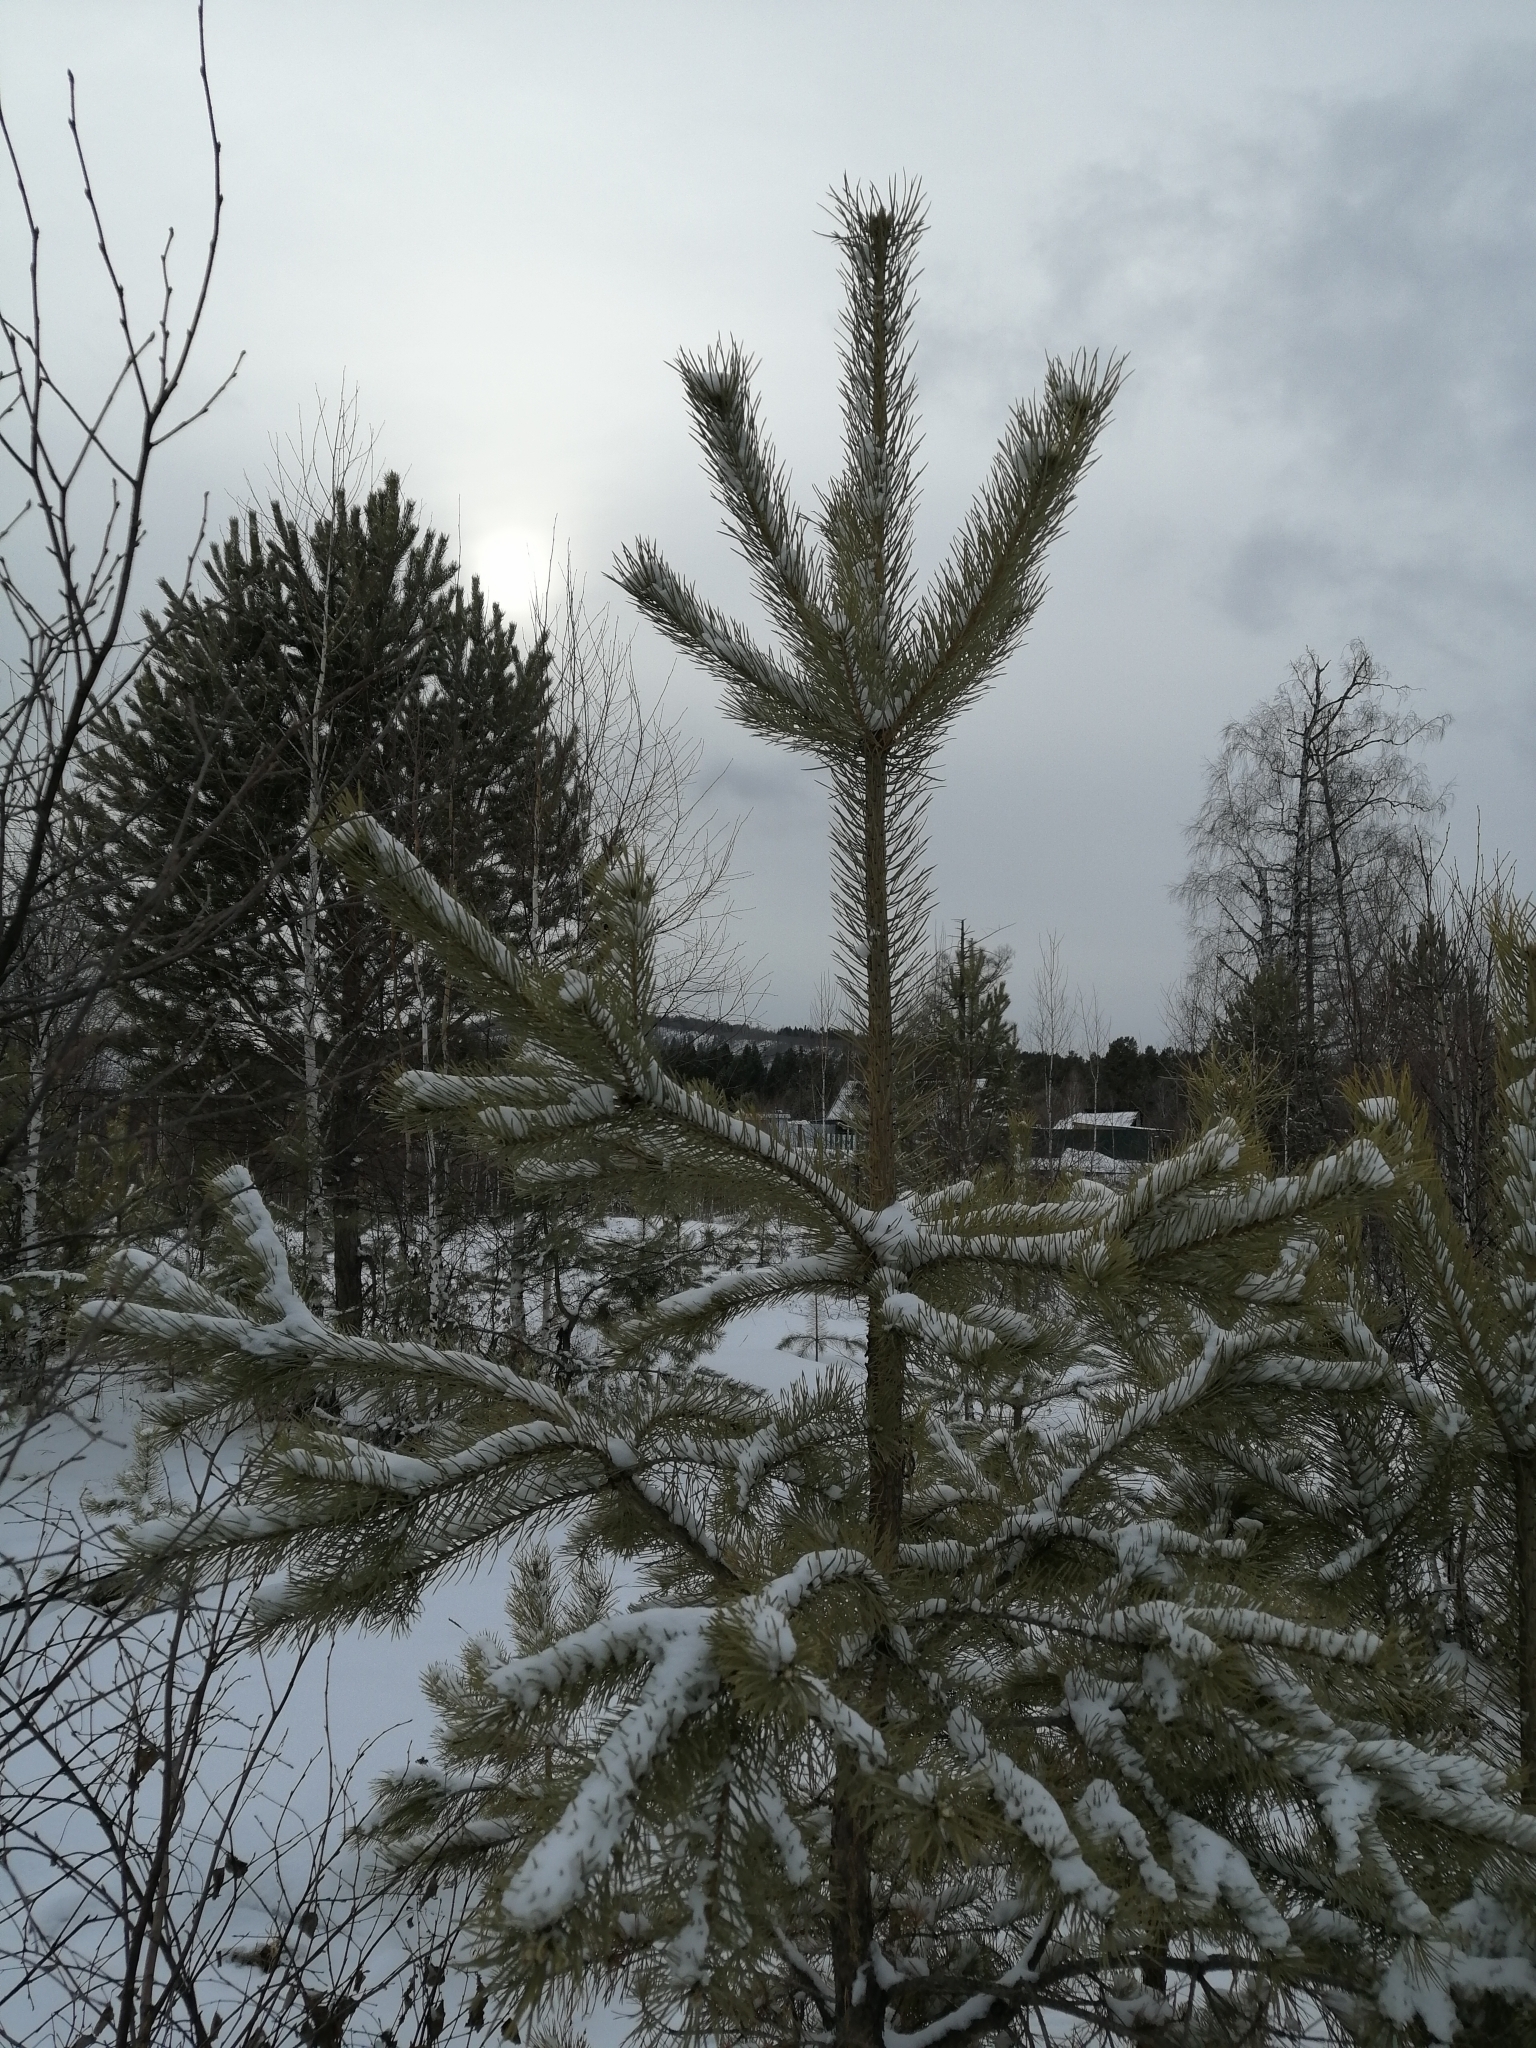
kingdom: Plantae
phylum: Tracheophyta
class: Pinopsida
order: Pinales
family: Pinaceae
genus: Pinus
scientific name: Pinus sylvestris
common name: Scots pine
